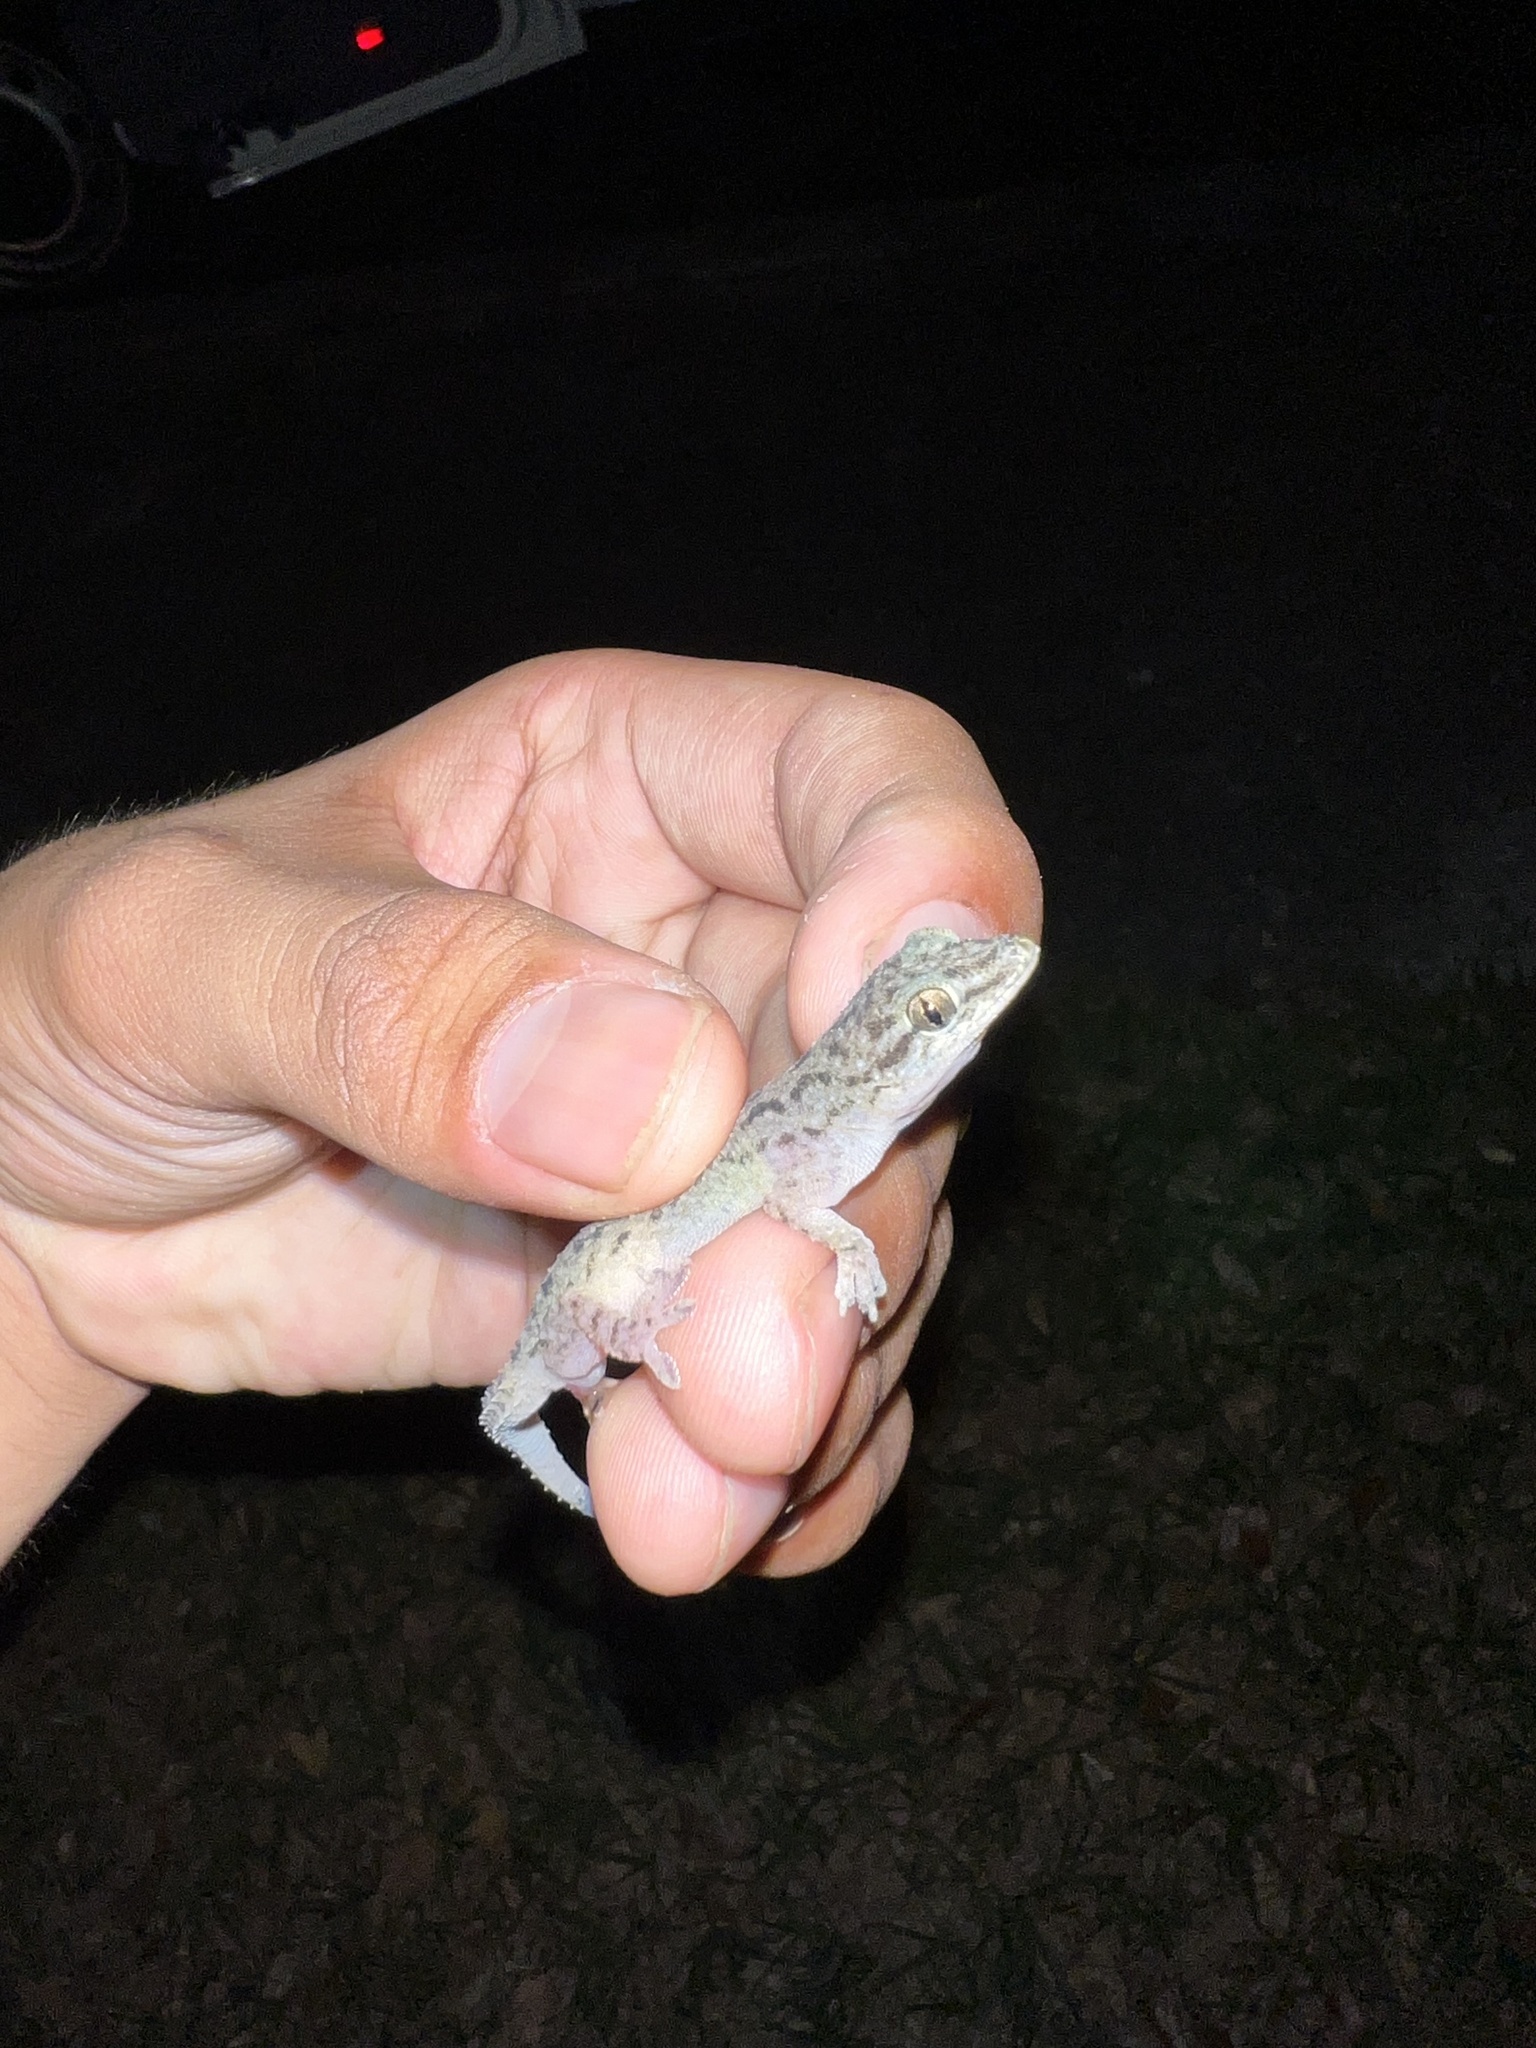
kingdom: Animalia
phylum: Chordata
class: Squamata
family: Gekkonidae
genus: Hemidactylus
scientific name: Hemidactylus parvimaculatus
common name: Spotted house gecko
